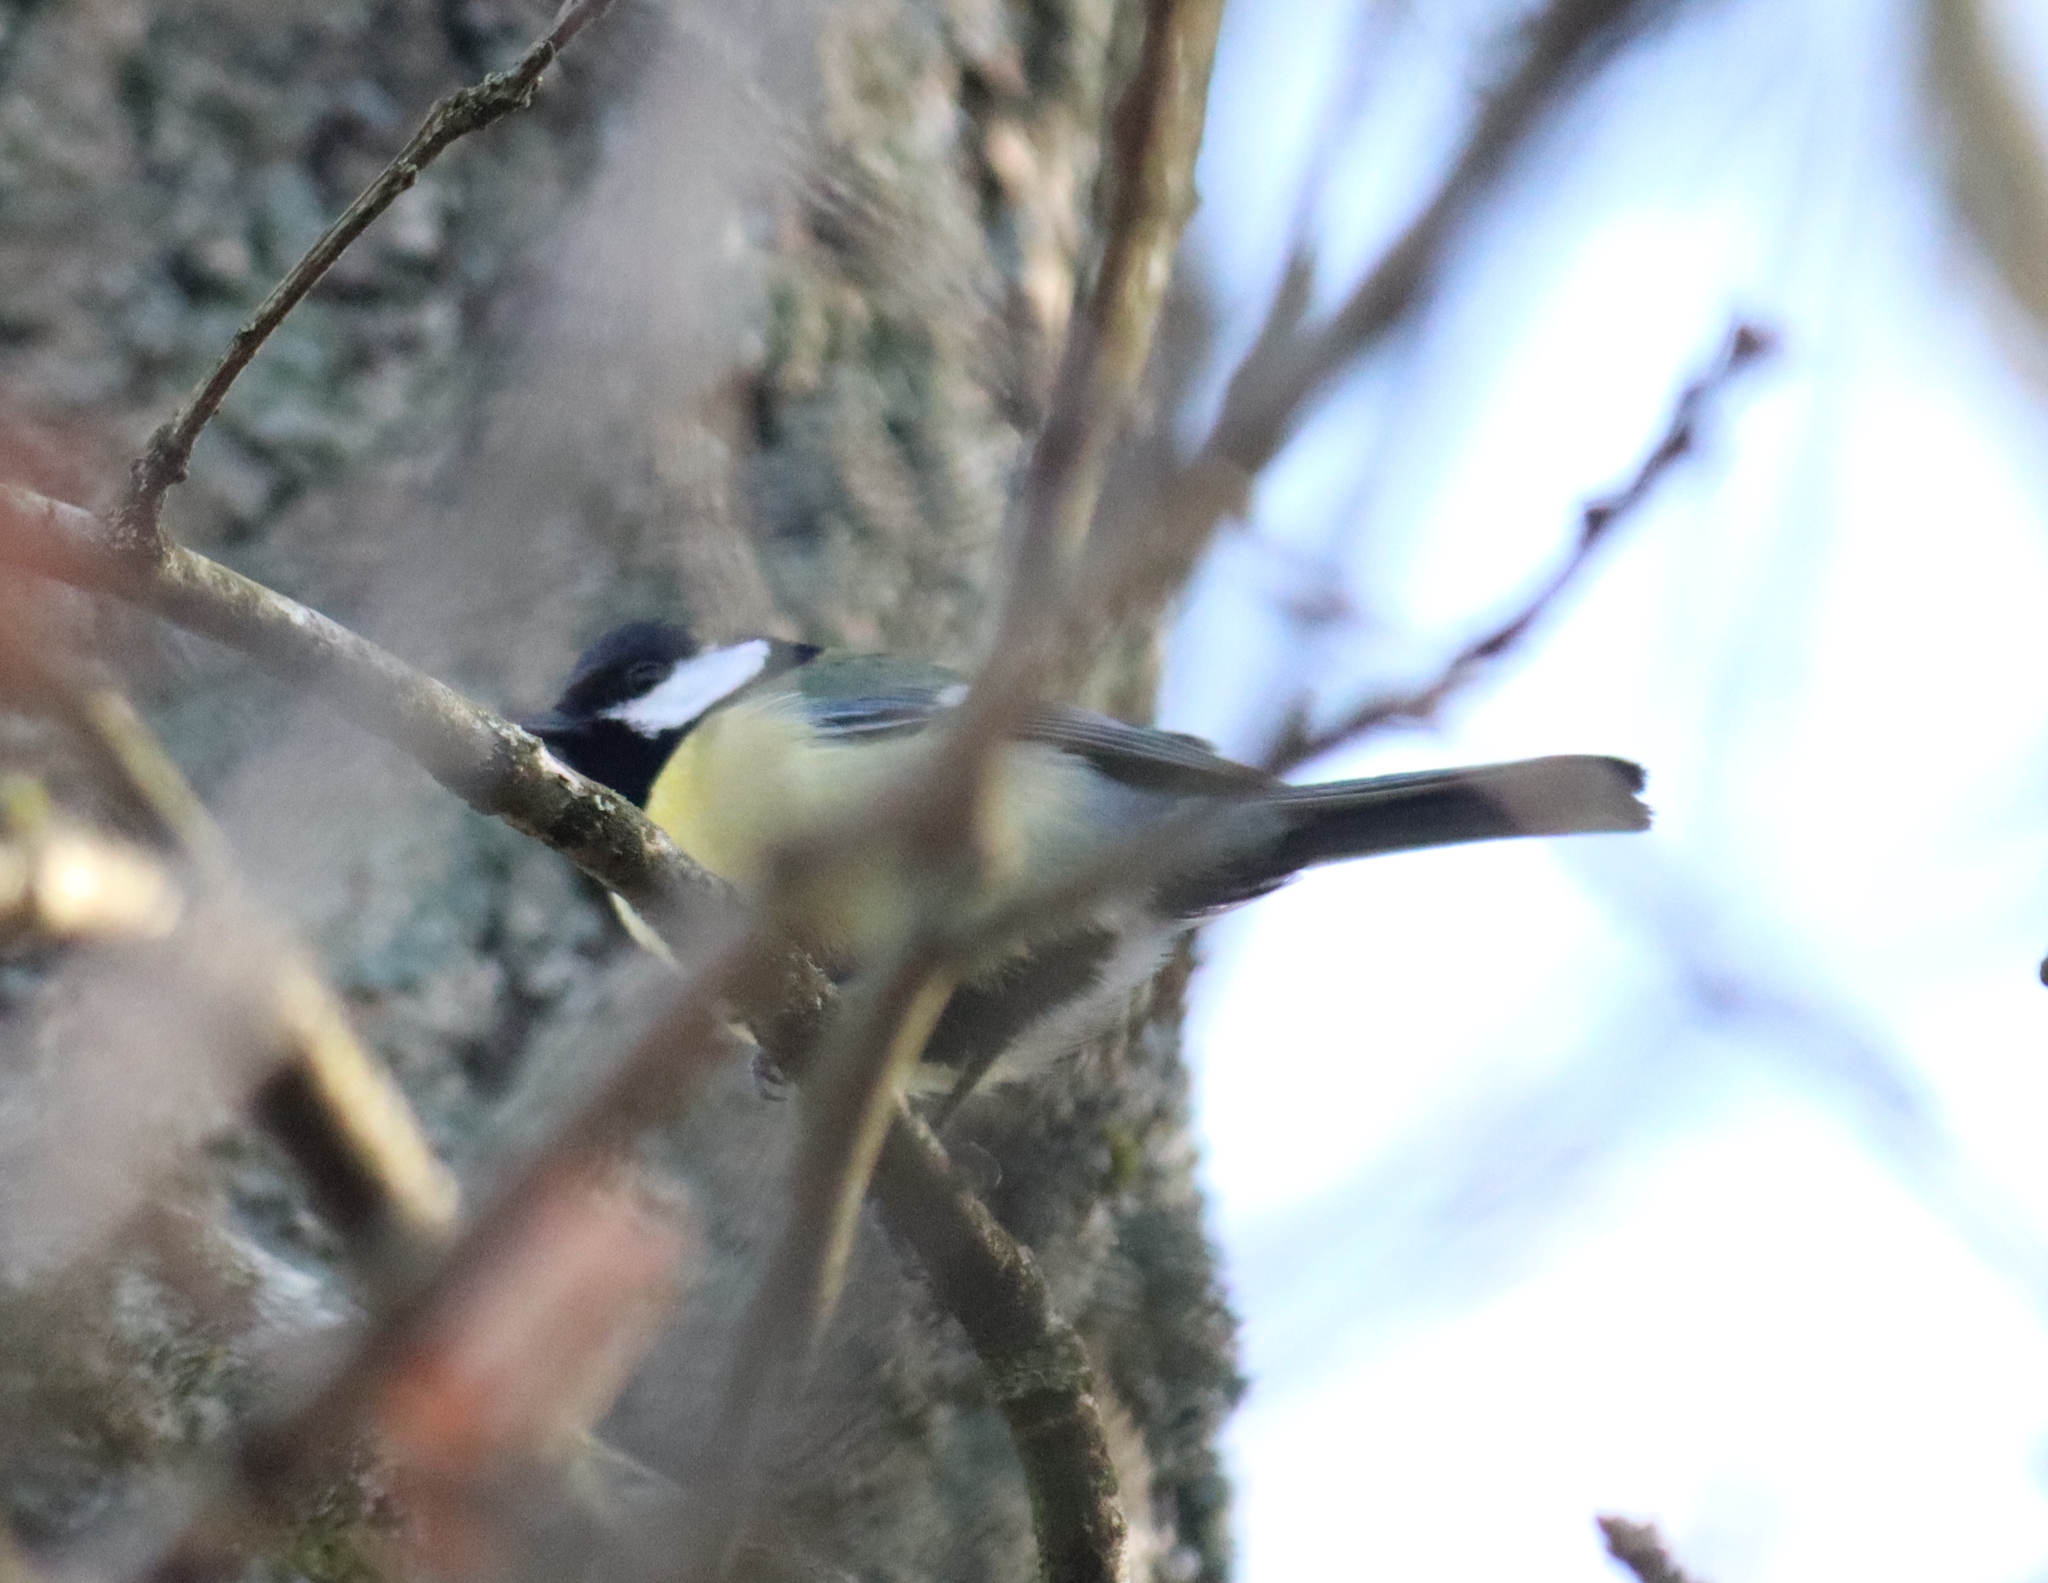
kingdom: Animalia
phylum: Chordata
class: Aves
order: Passeriformes
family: Paridae
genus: Parus
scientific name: Parus major
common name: Great tit
